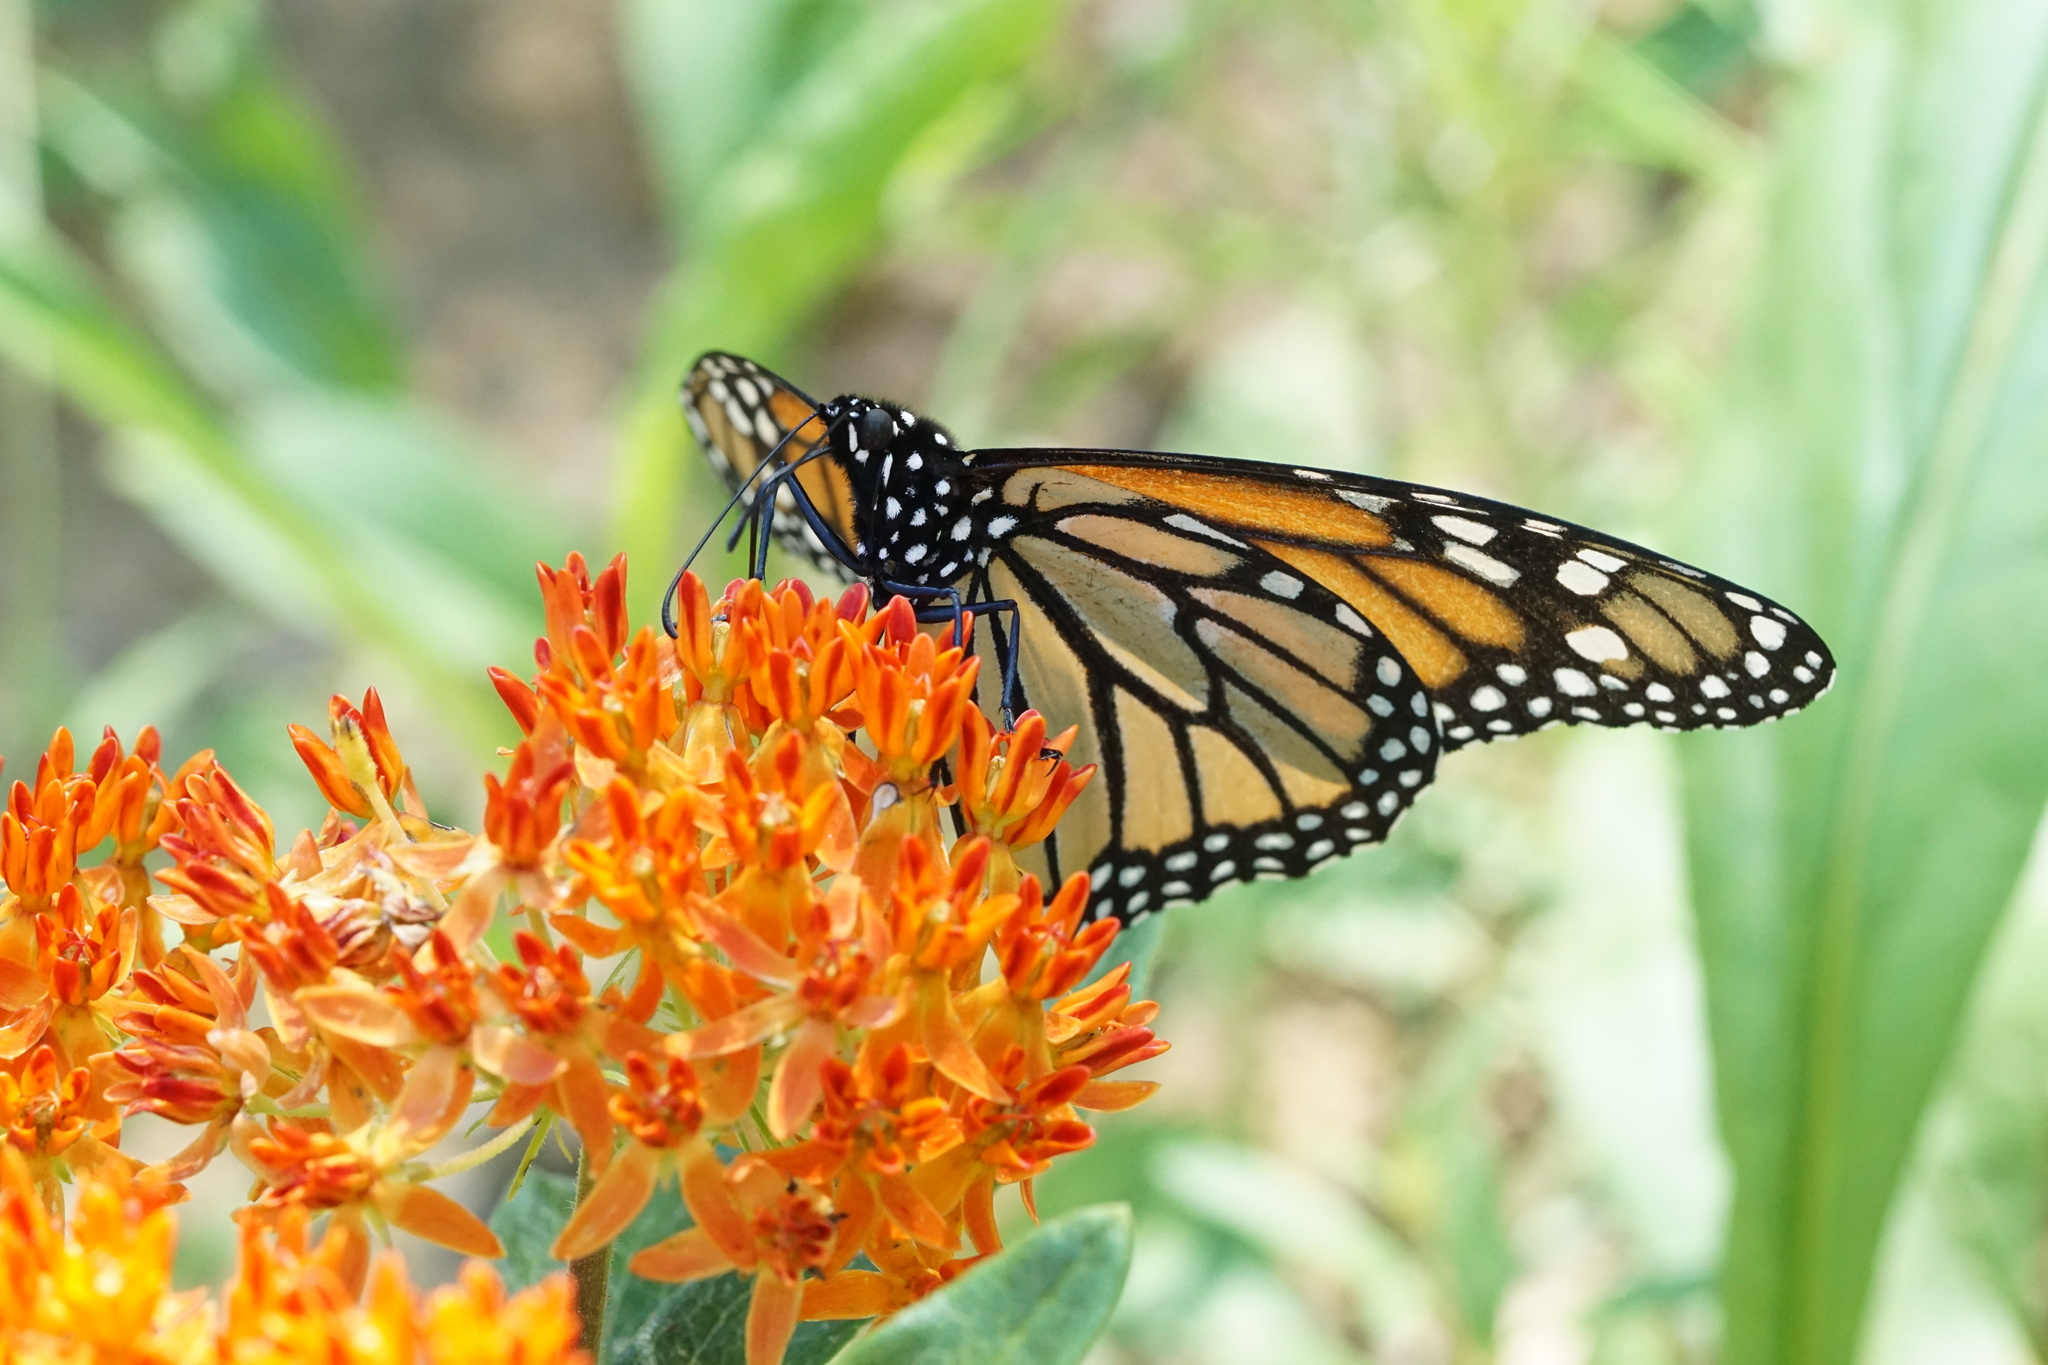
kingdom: Animalia
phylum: Arthropoda
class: Insecta
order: Lepidoptera
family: Nymphalidae
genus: Danaus
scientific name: Danaus plexippus
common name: Monarch
